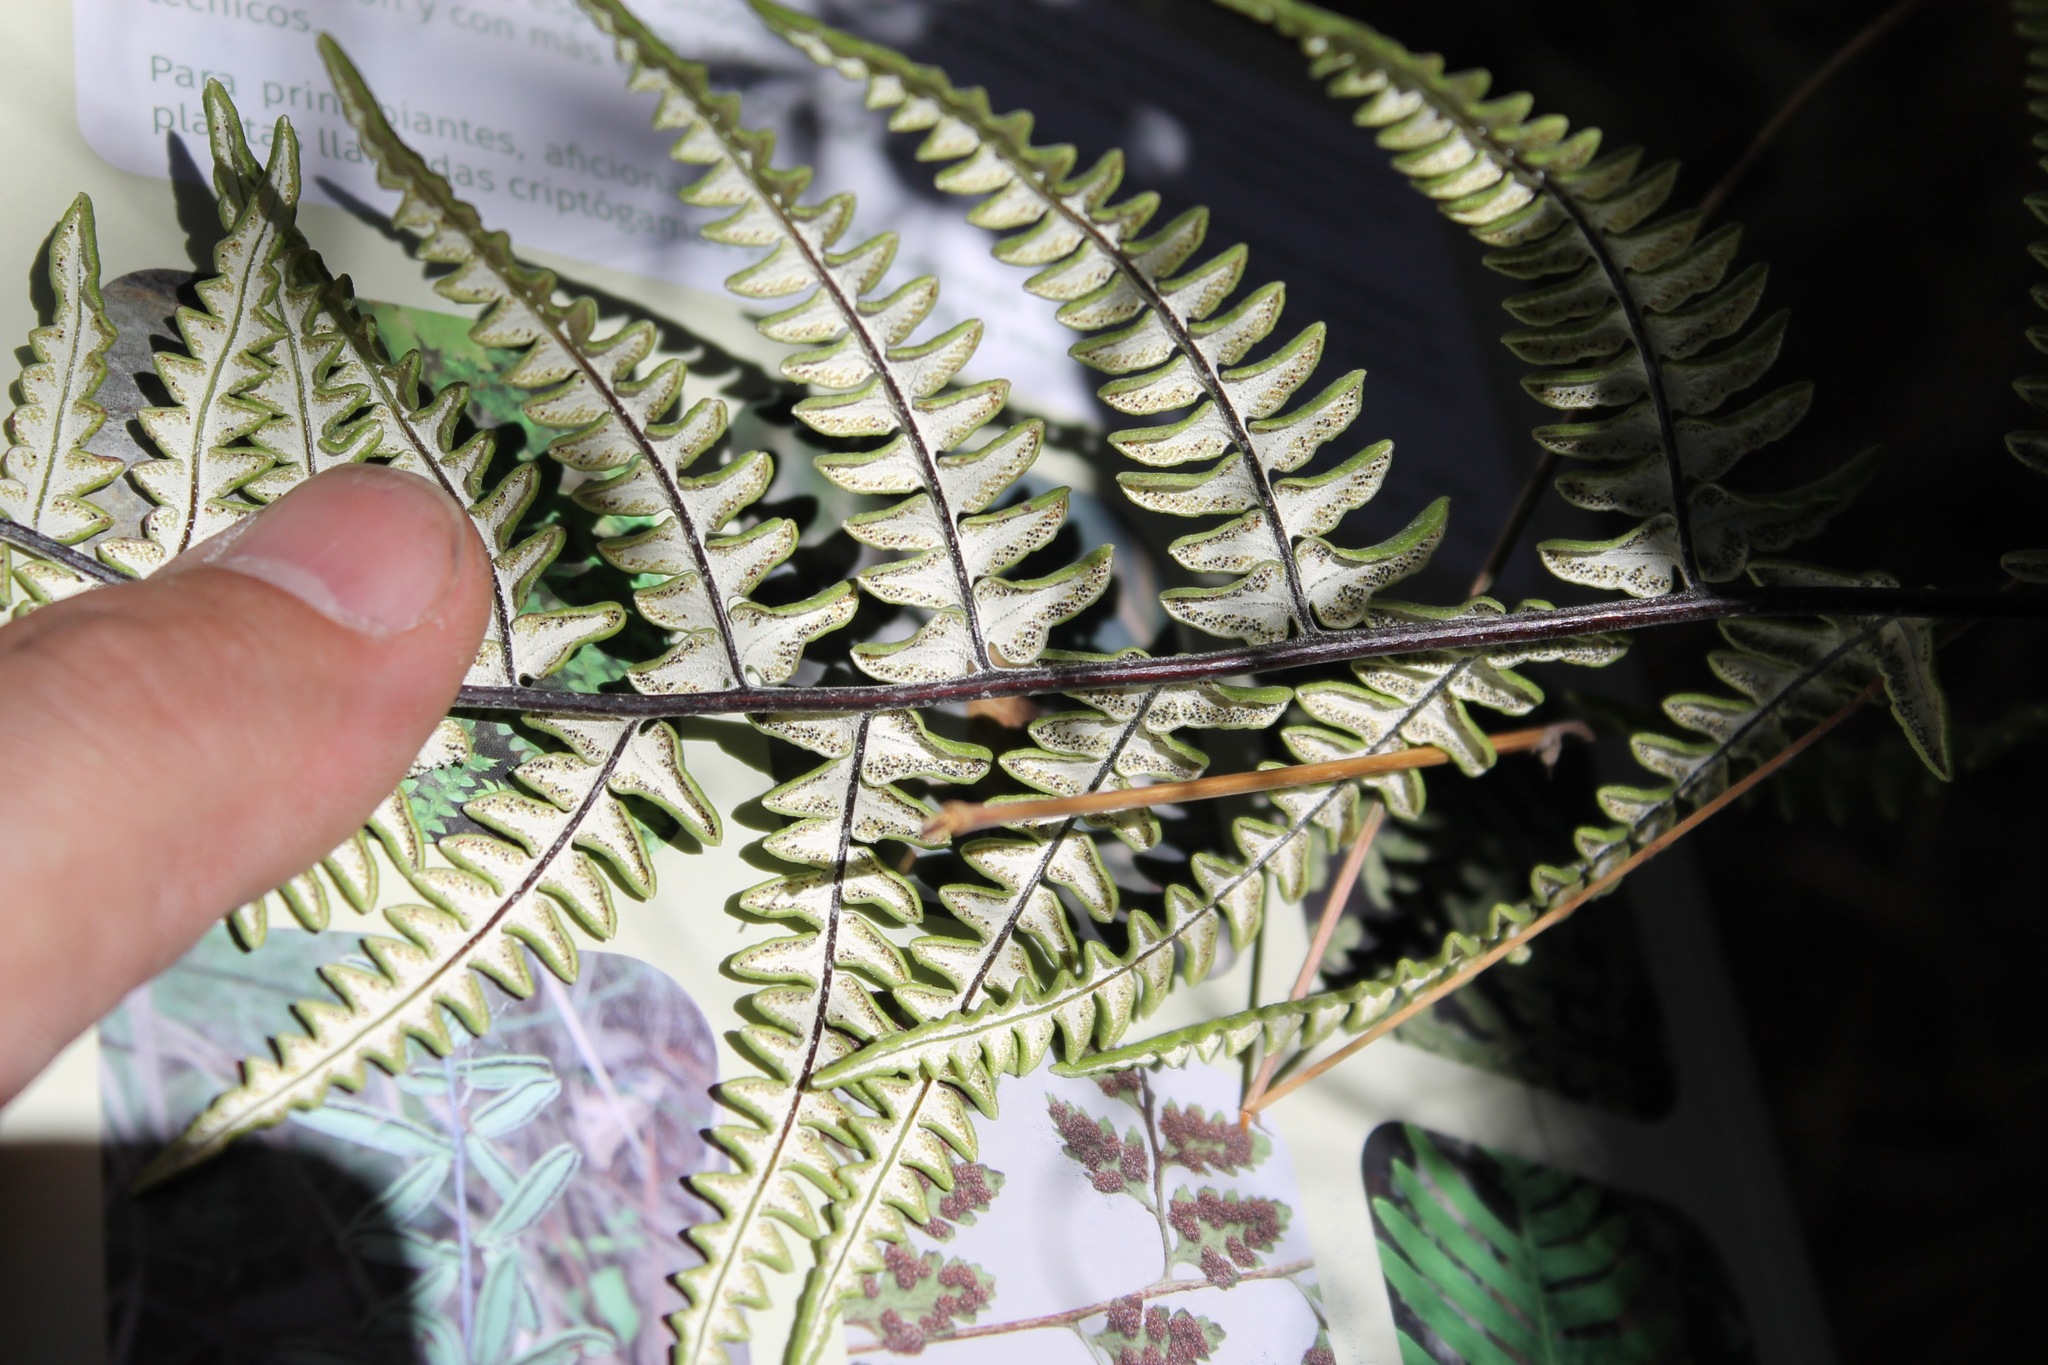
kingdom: Plantae
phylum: Tracheophyta
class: Polypodiopsida
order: Polypodiales
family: Pteridaceae
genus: Pityrogramma
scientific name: Pityrogramma ebenea
